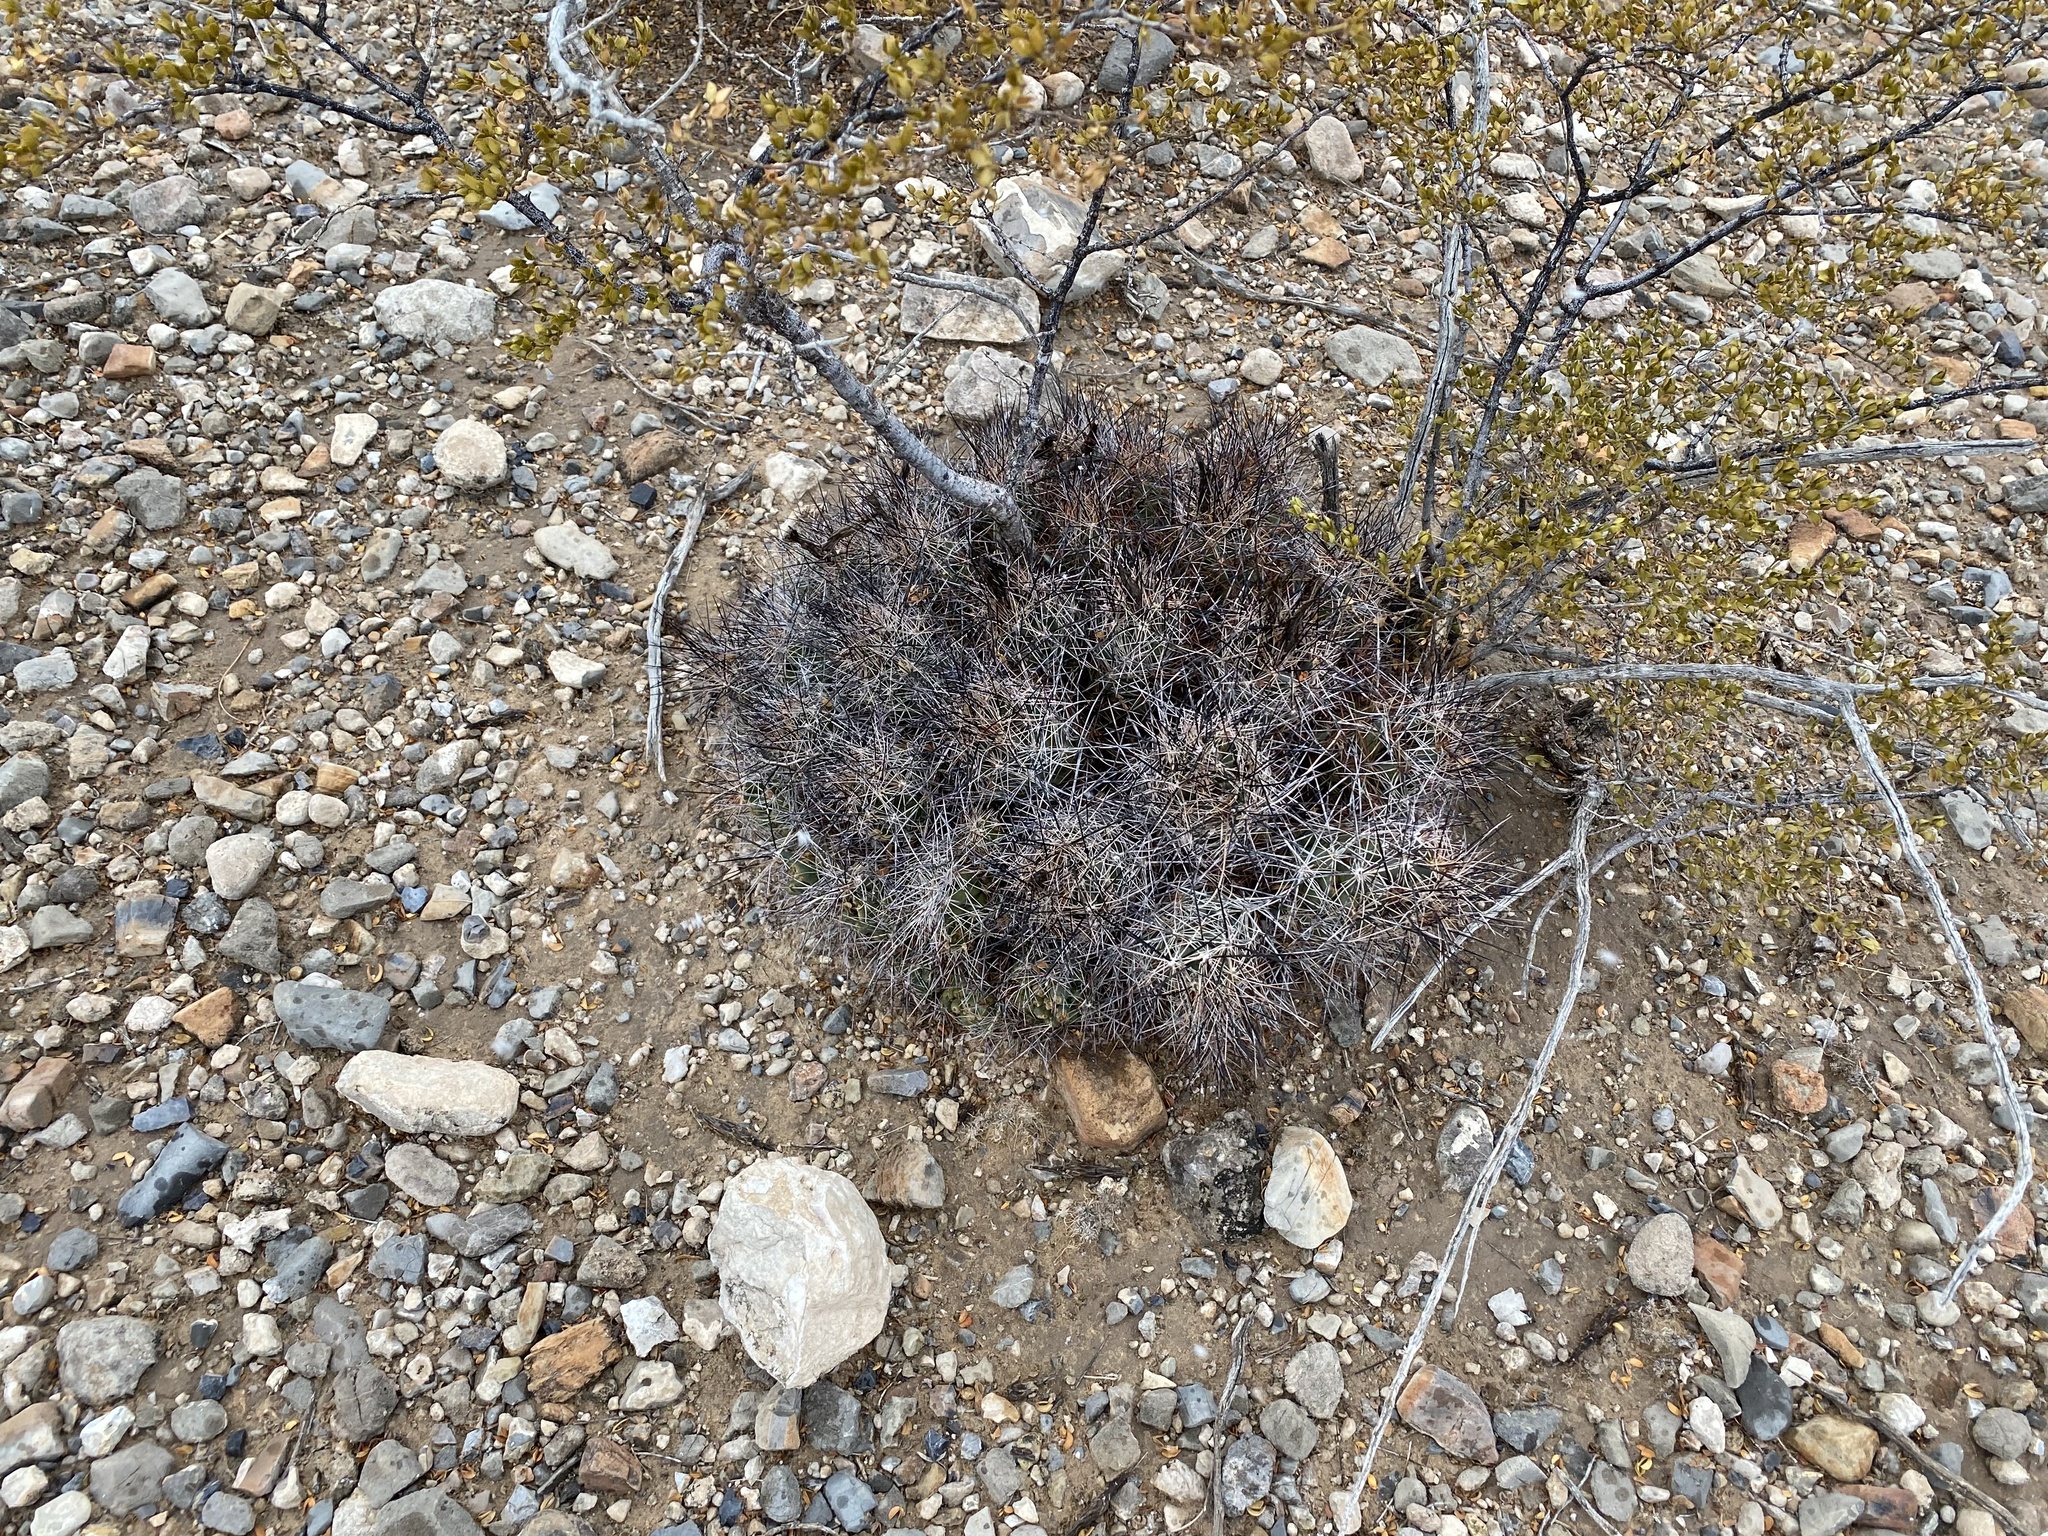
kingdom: Plantae
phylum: Tracheophyta
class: Magnoliopsida
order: Caryophyllales
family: Cactaceae
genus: Coryphantha
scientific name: Coryphantha macromeris
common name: Nipple beehive cactus
